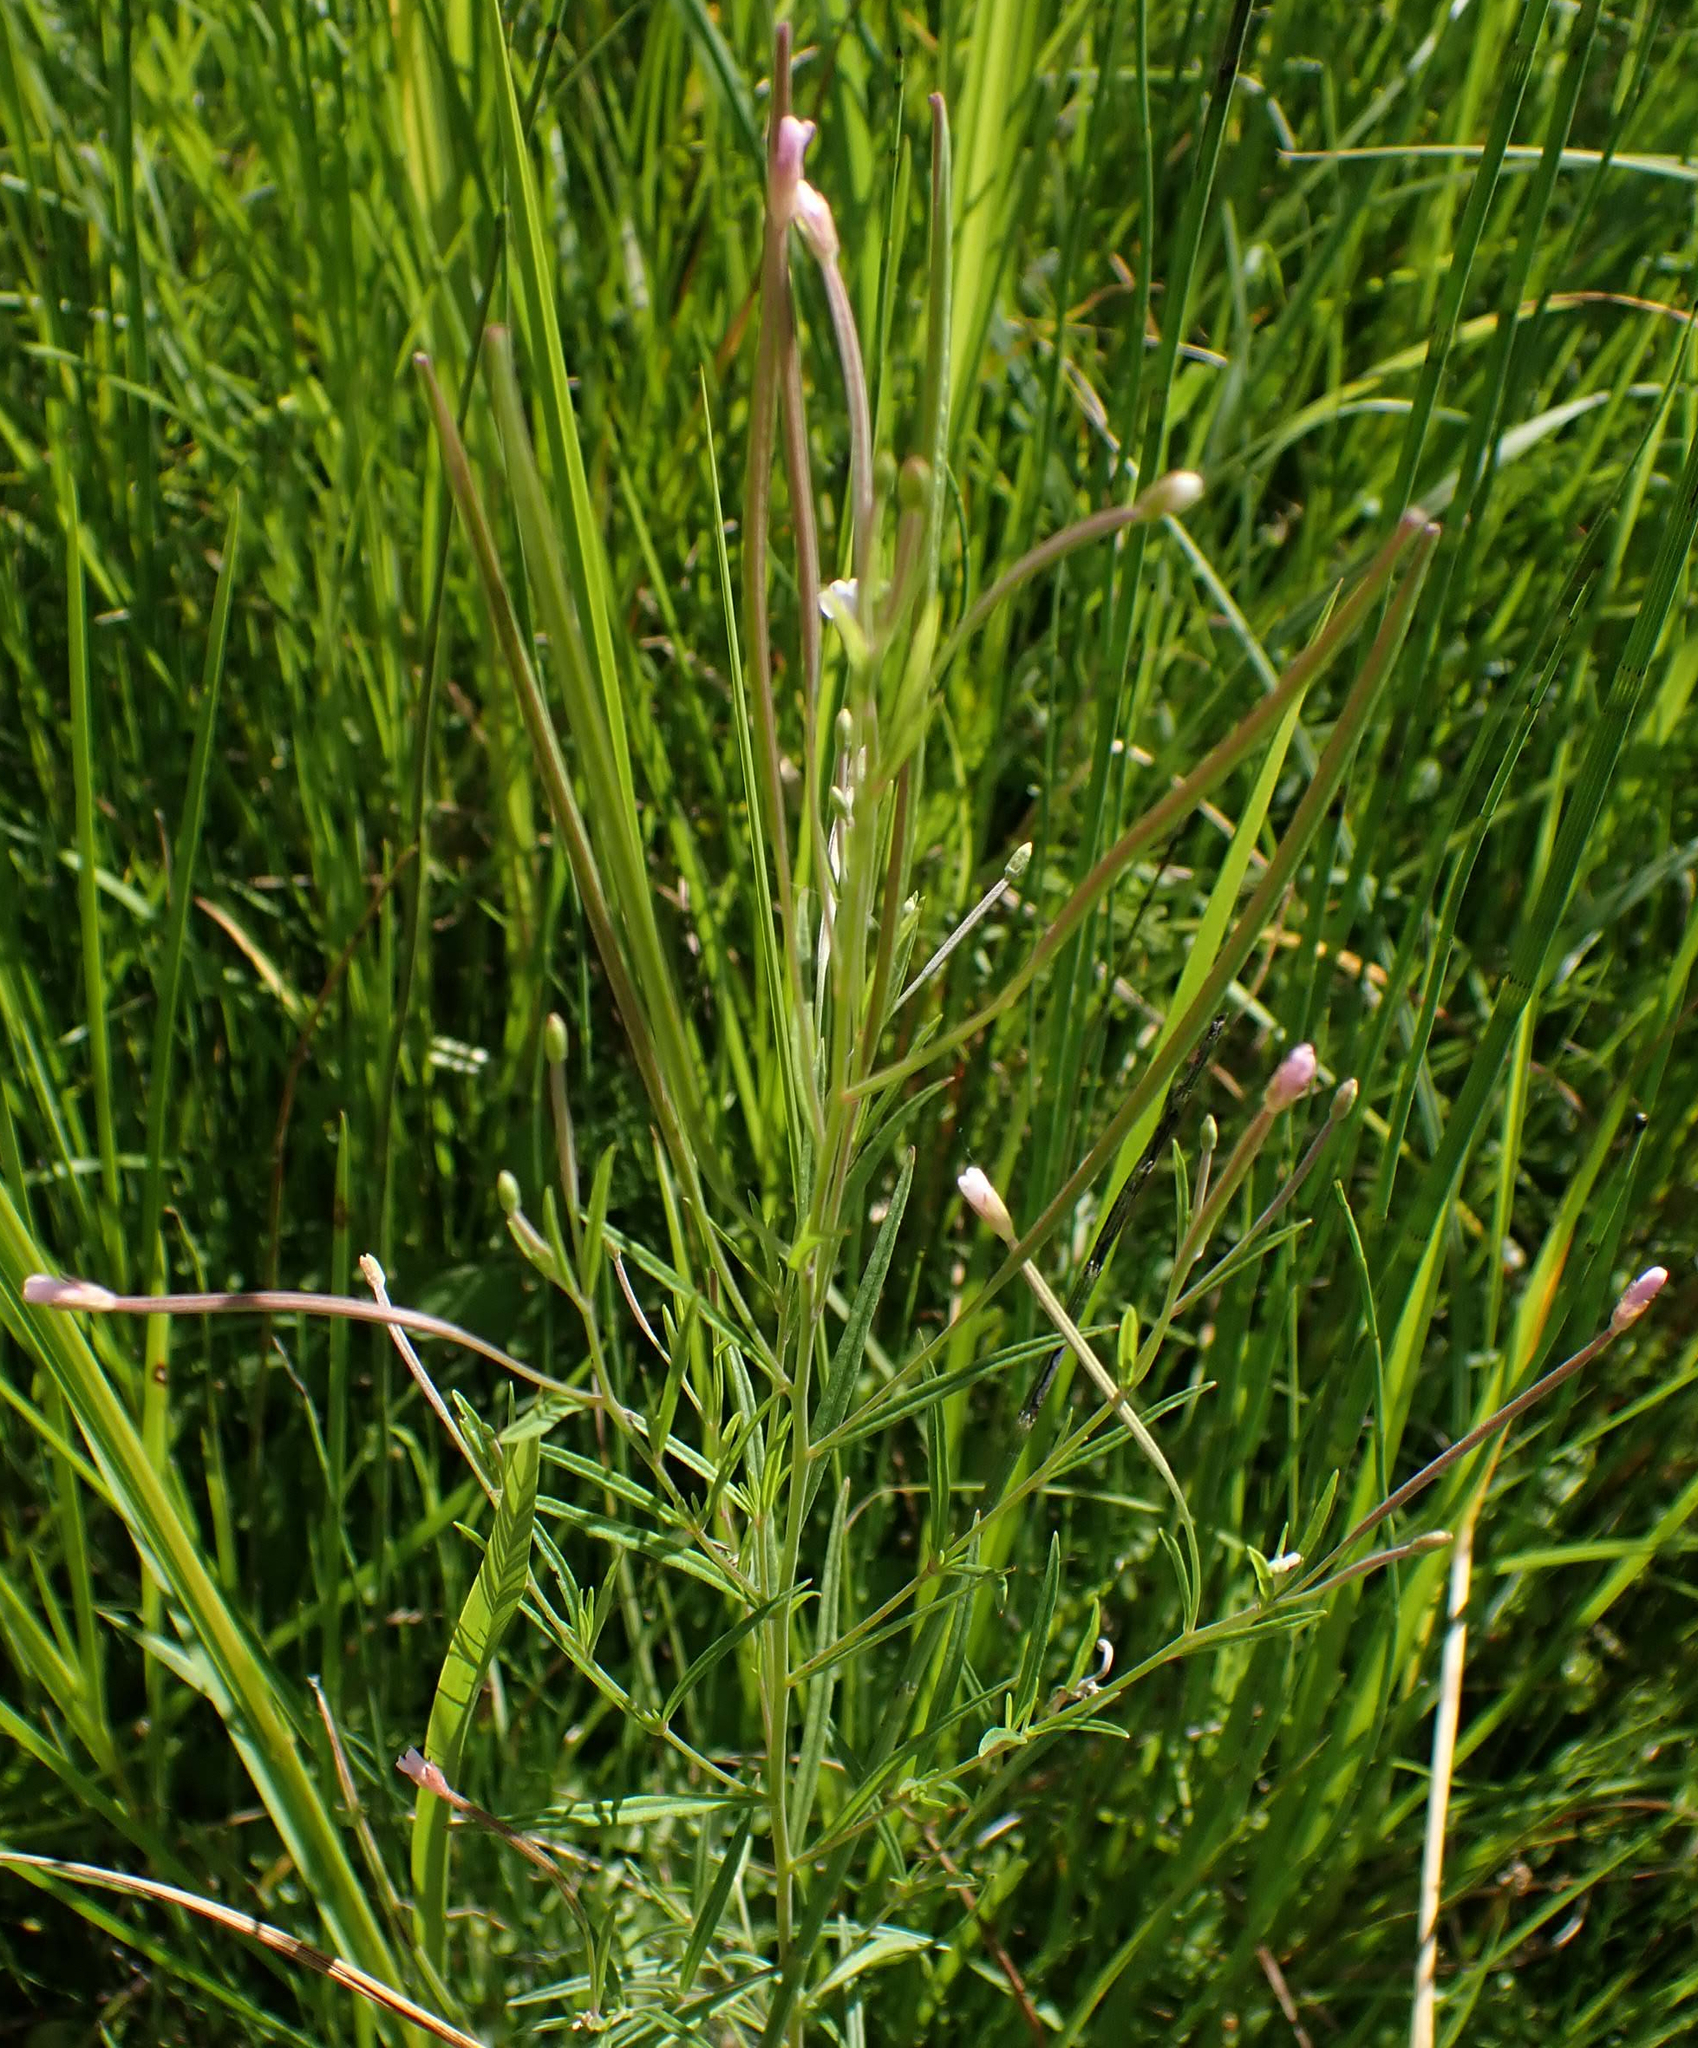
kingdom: Plantae
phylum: Tracheophyta
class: Magnoliopsida
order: Myrtales
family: Onagraceae
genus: Epilobium
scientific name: Epilobium ciliatum
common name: American willowherb
